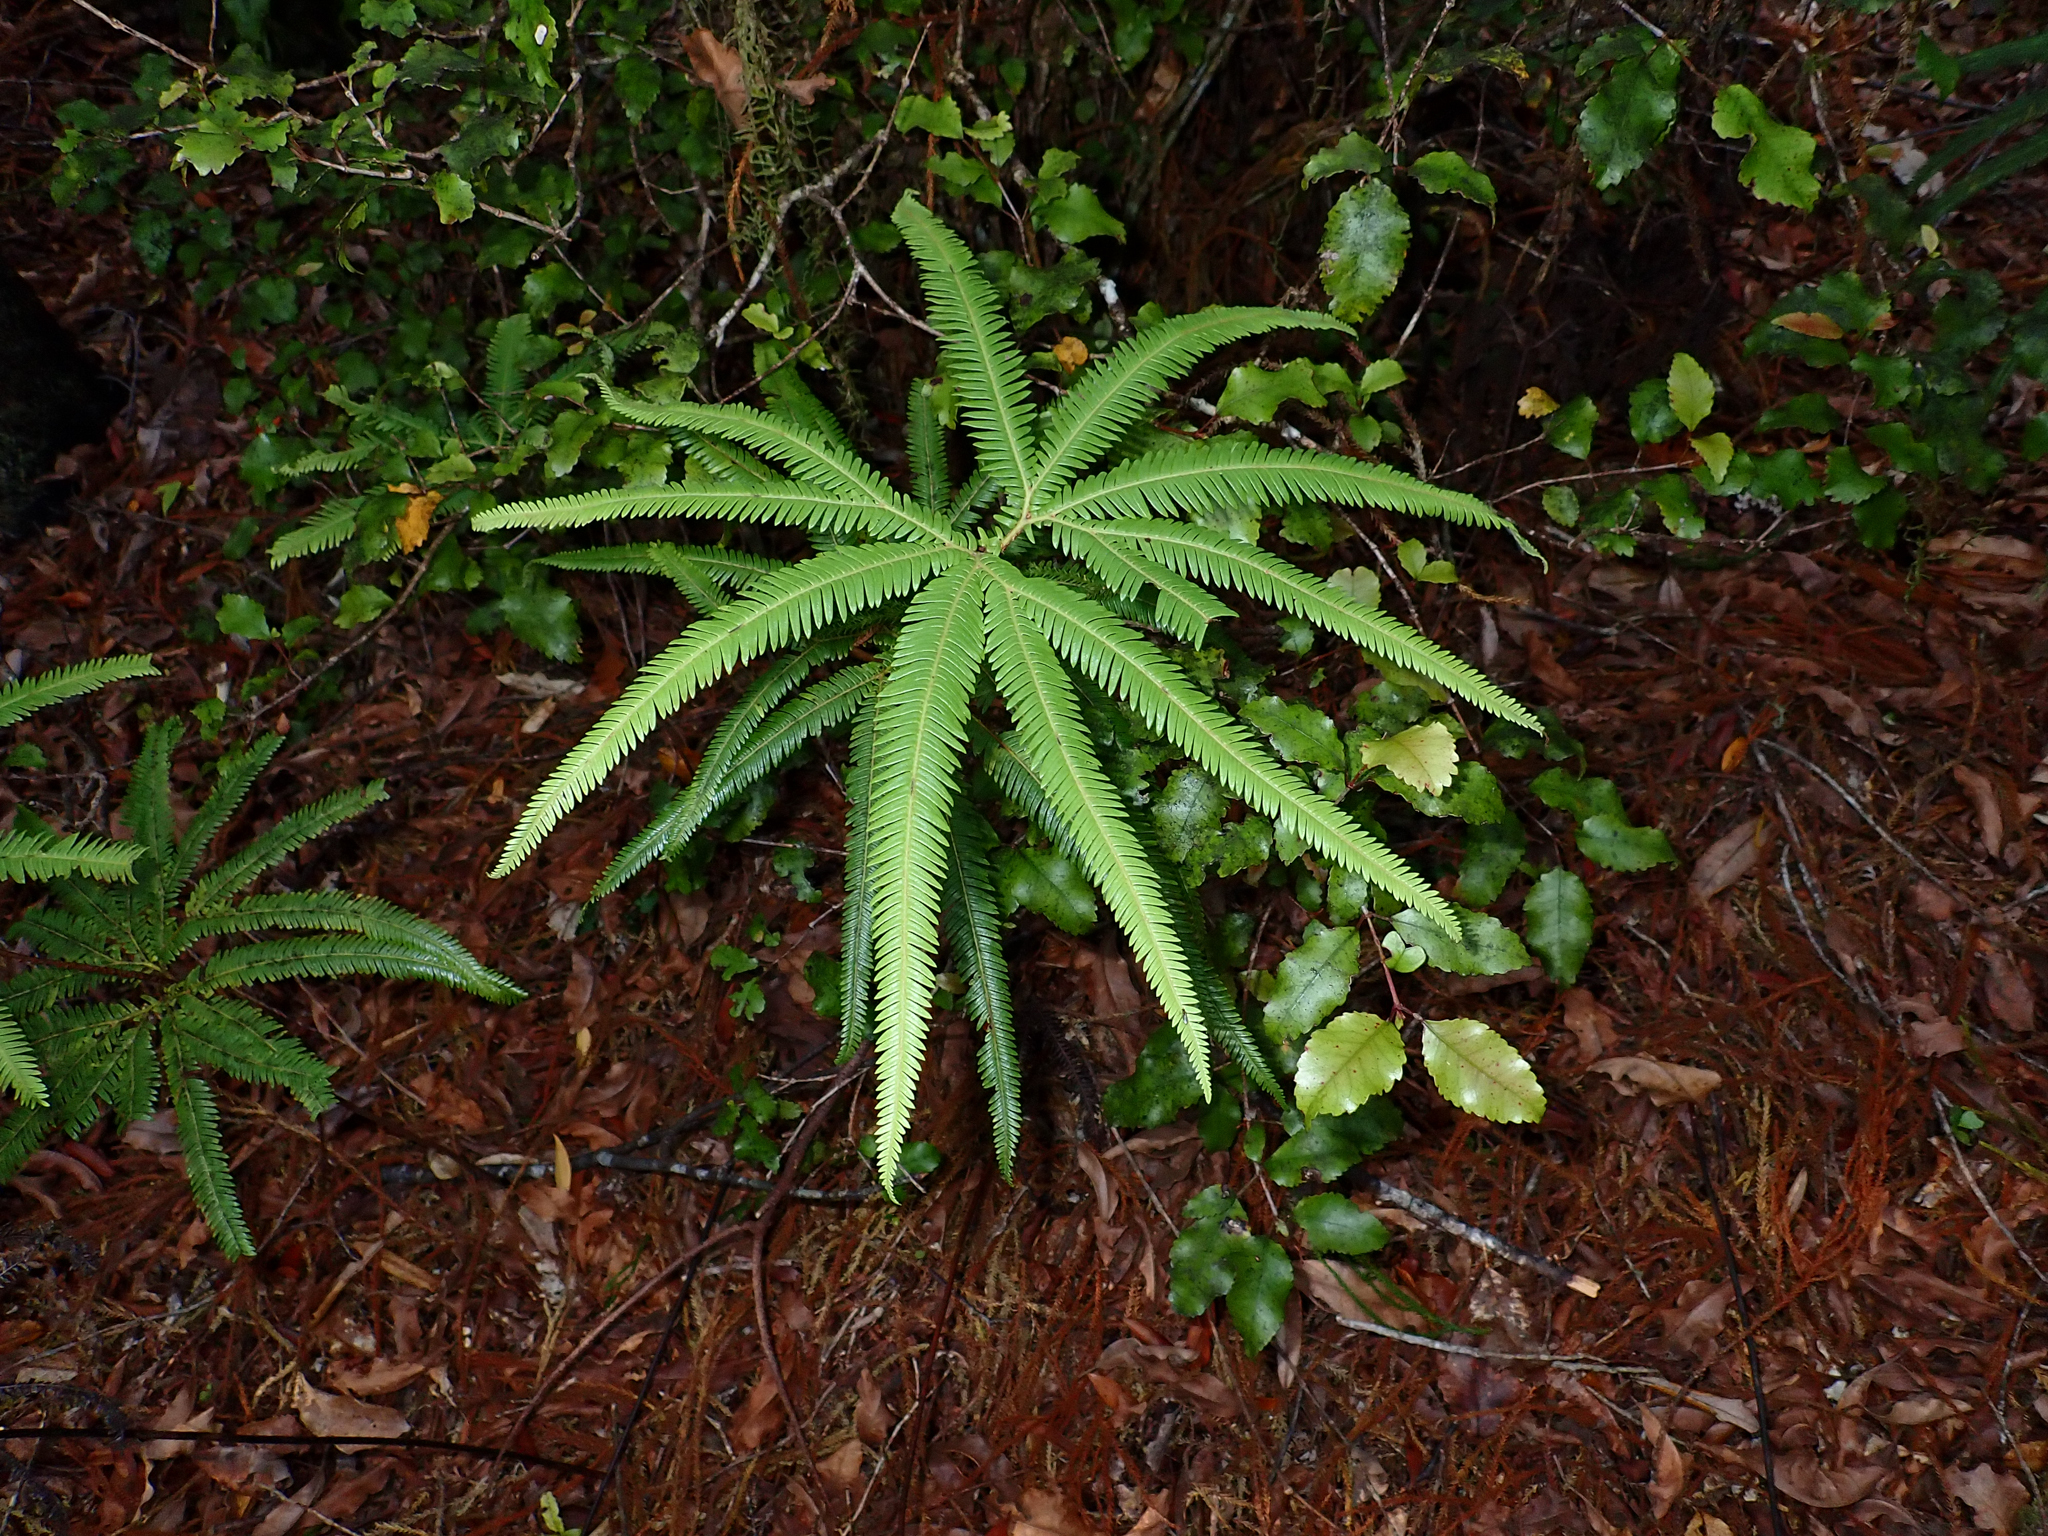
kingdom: Plantae
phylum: Tracheophyta
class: Polypodiopsida
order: Gleicheniales
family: Gleicheniaceae
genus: Sticherus
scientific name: Sticherus cunninghamii
